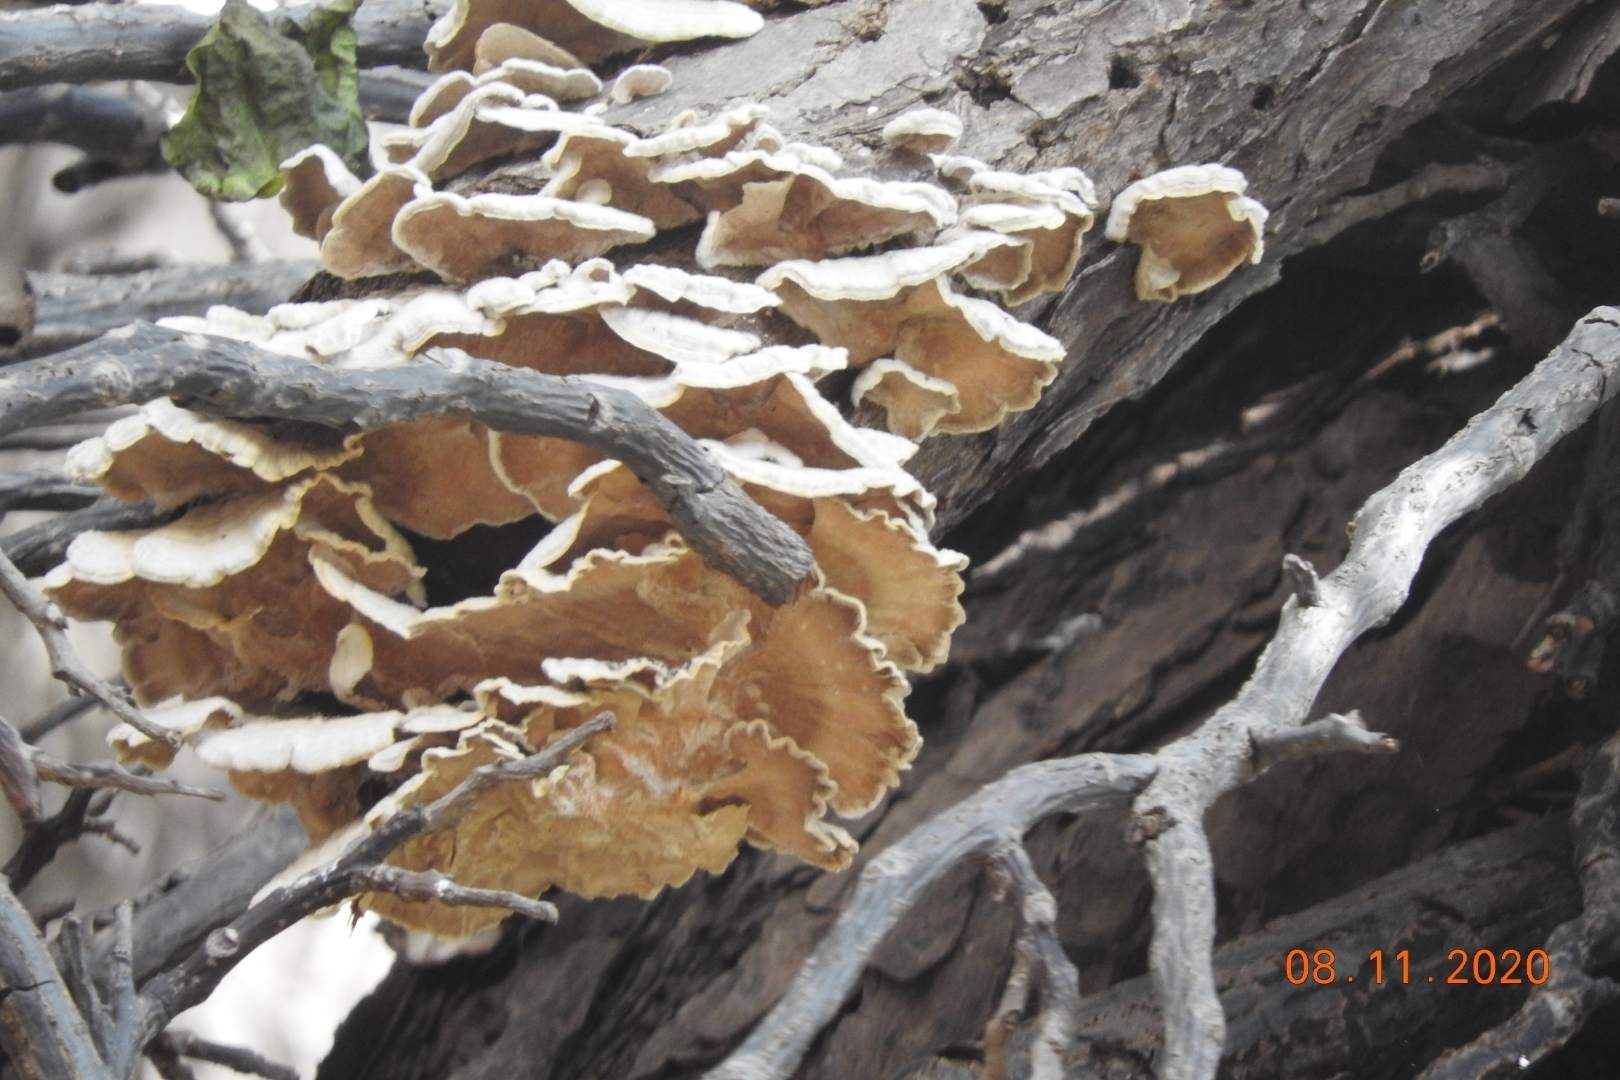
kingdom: Fungi
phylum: Basidiomycota
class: Agaricomycetes
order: Polyporales
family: Polyporaceae
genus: Trametes
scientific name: Trametes versicolor
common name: Turkeytail
